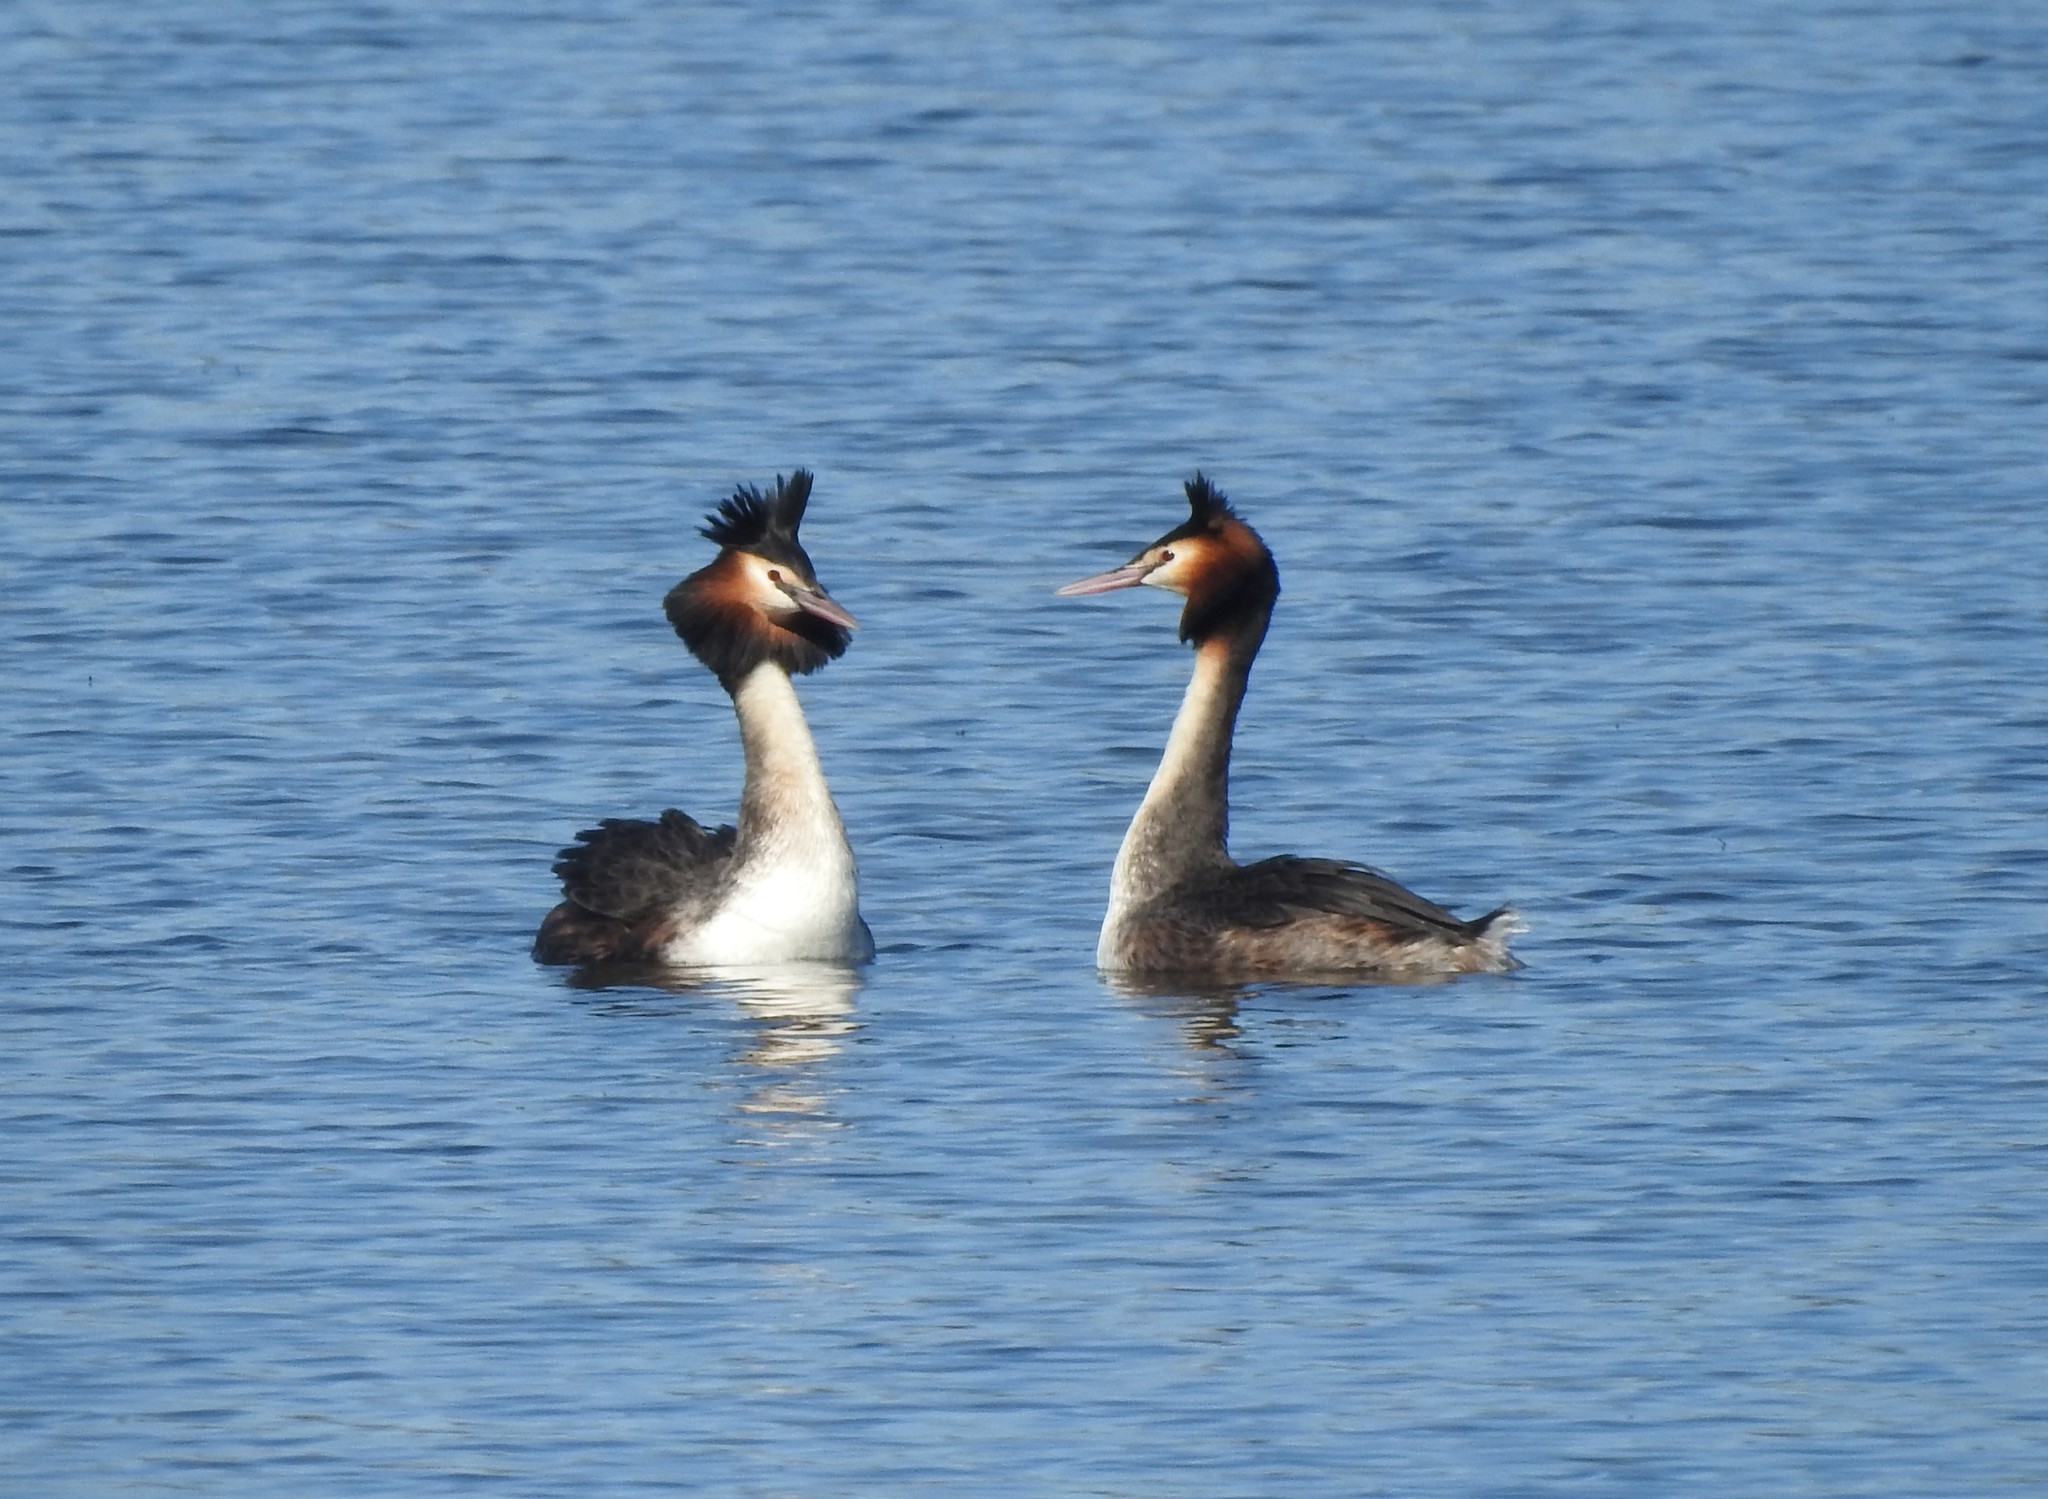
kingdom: Animalia
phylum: Chordata
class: Aves
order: Podicipediformes
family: Podicipedidae
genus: Podiceps
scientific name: Podiceps cristatus
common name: Great crested grebe
